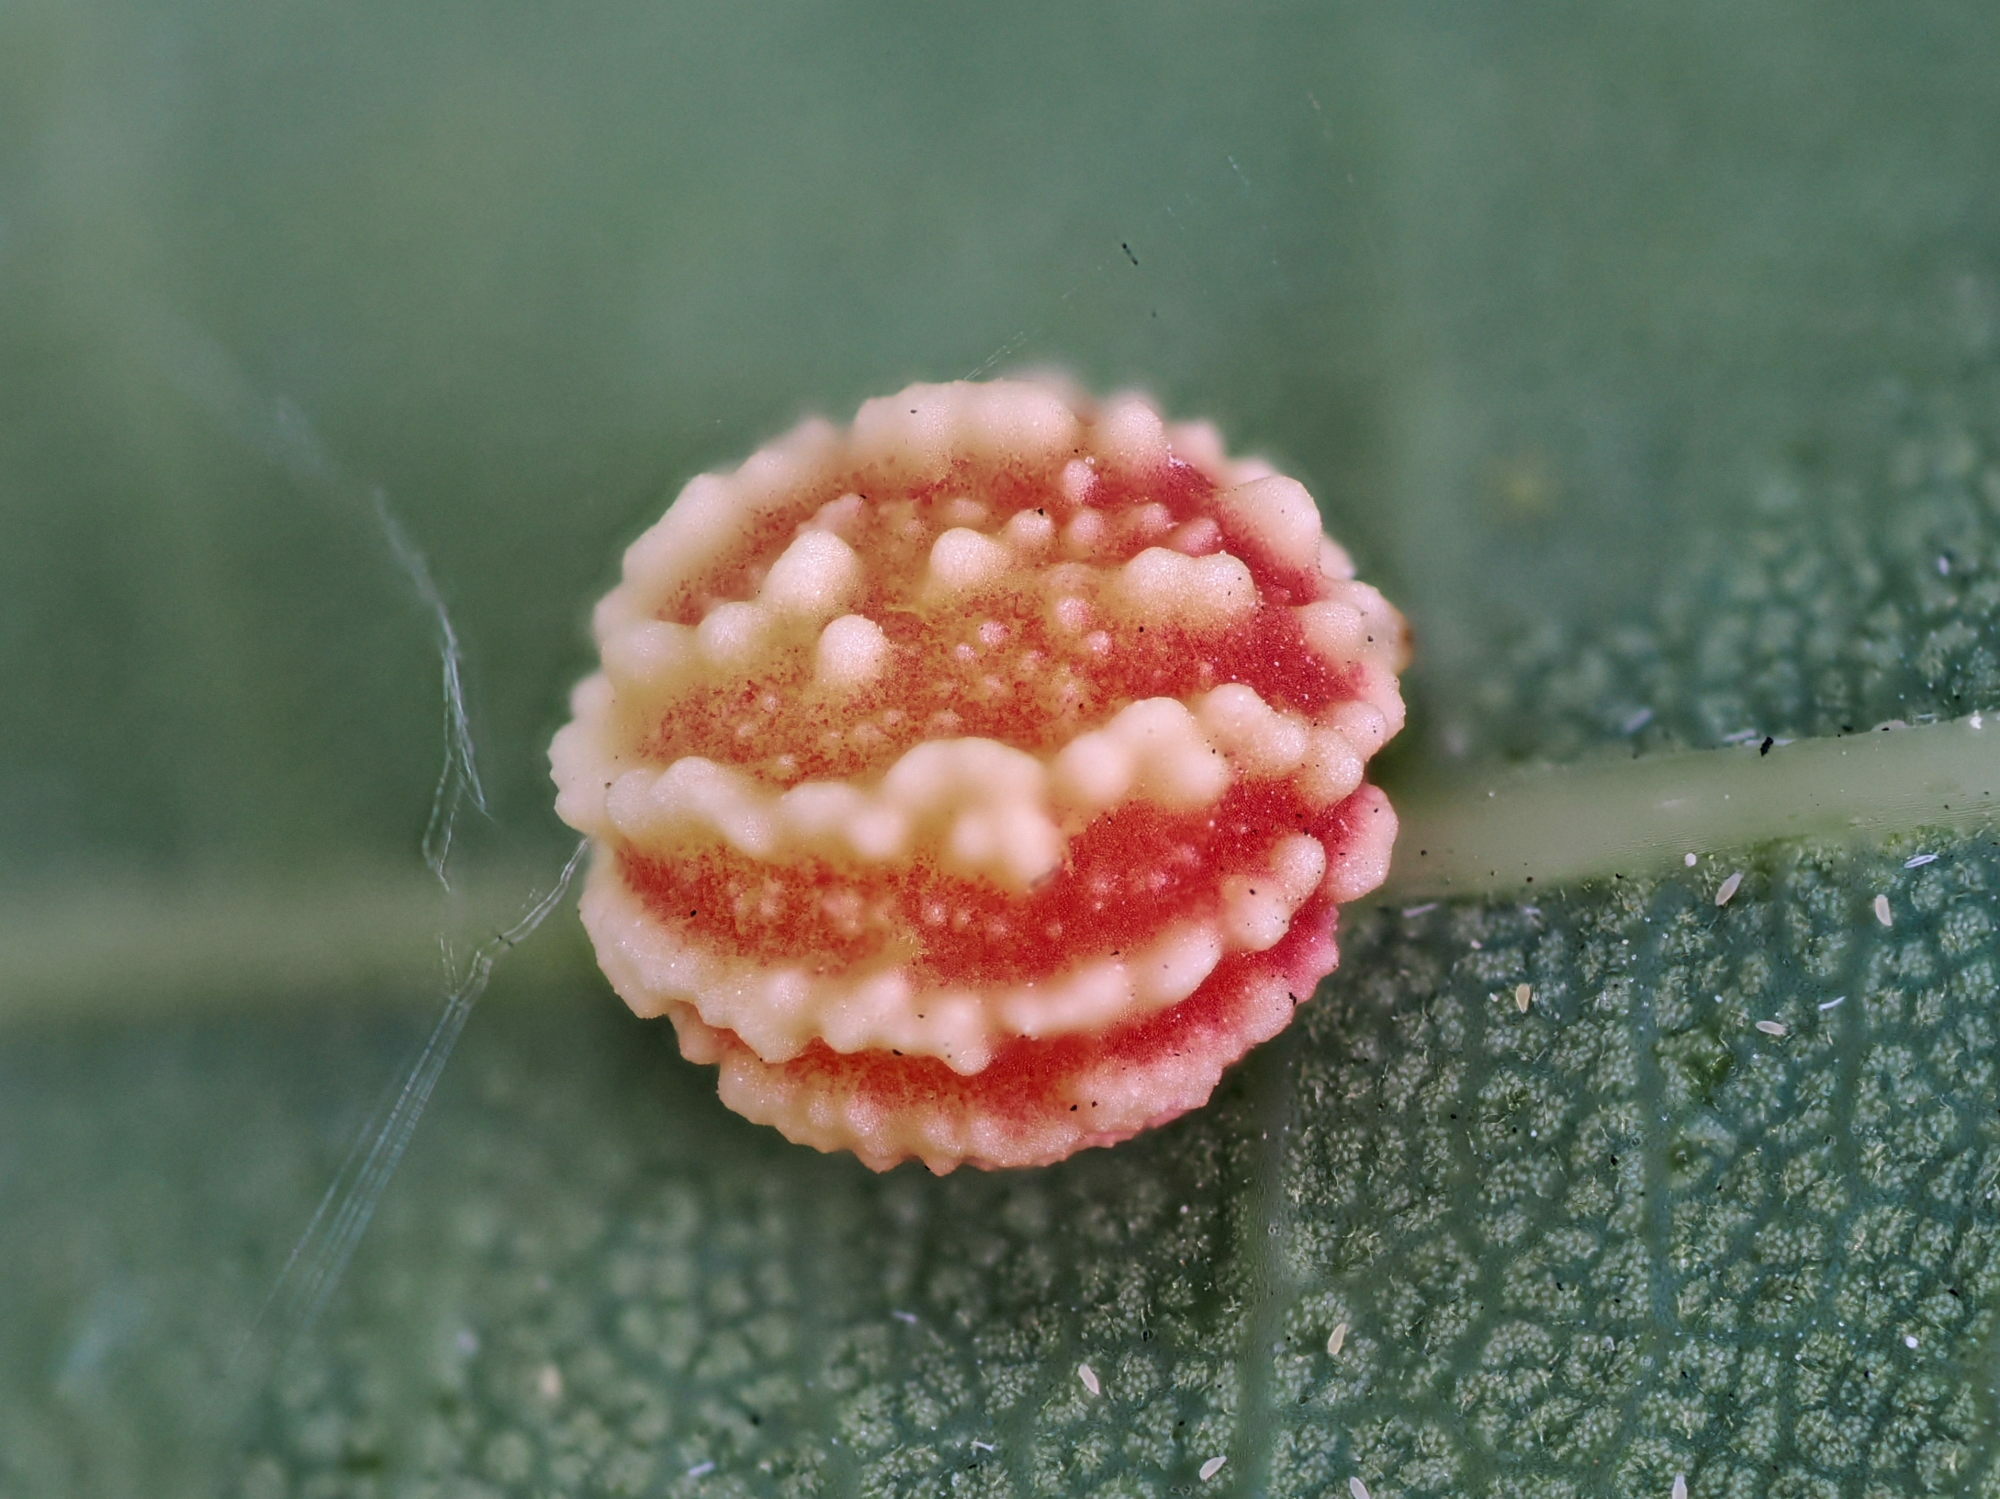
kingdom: Animalia
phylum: Arthropoda
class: Insecta
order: Hymenoptera
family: Cynipidae
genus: Cynips
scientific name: Cynips longiventris
